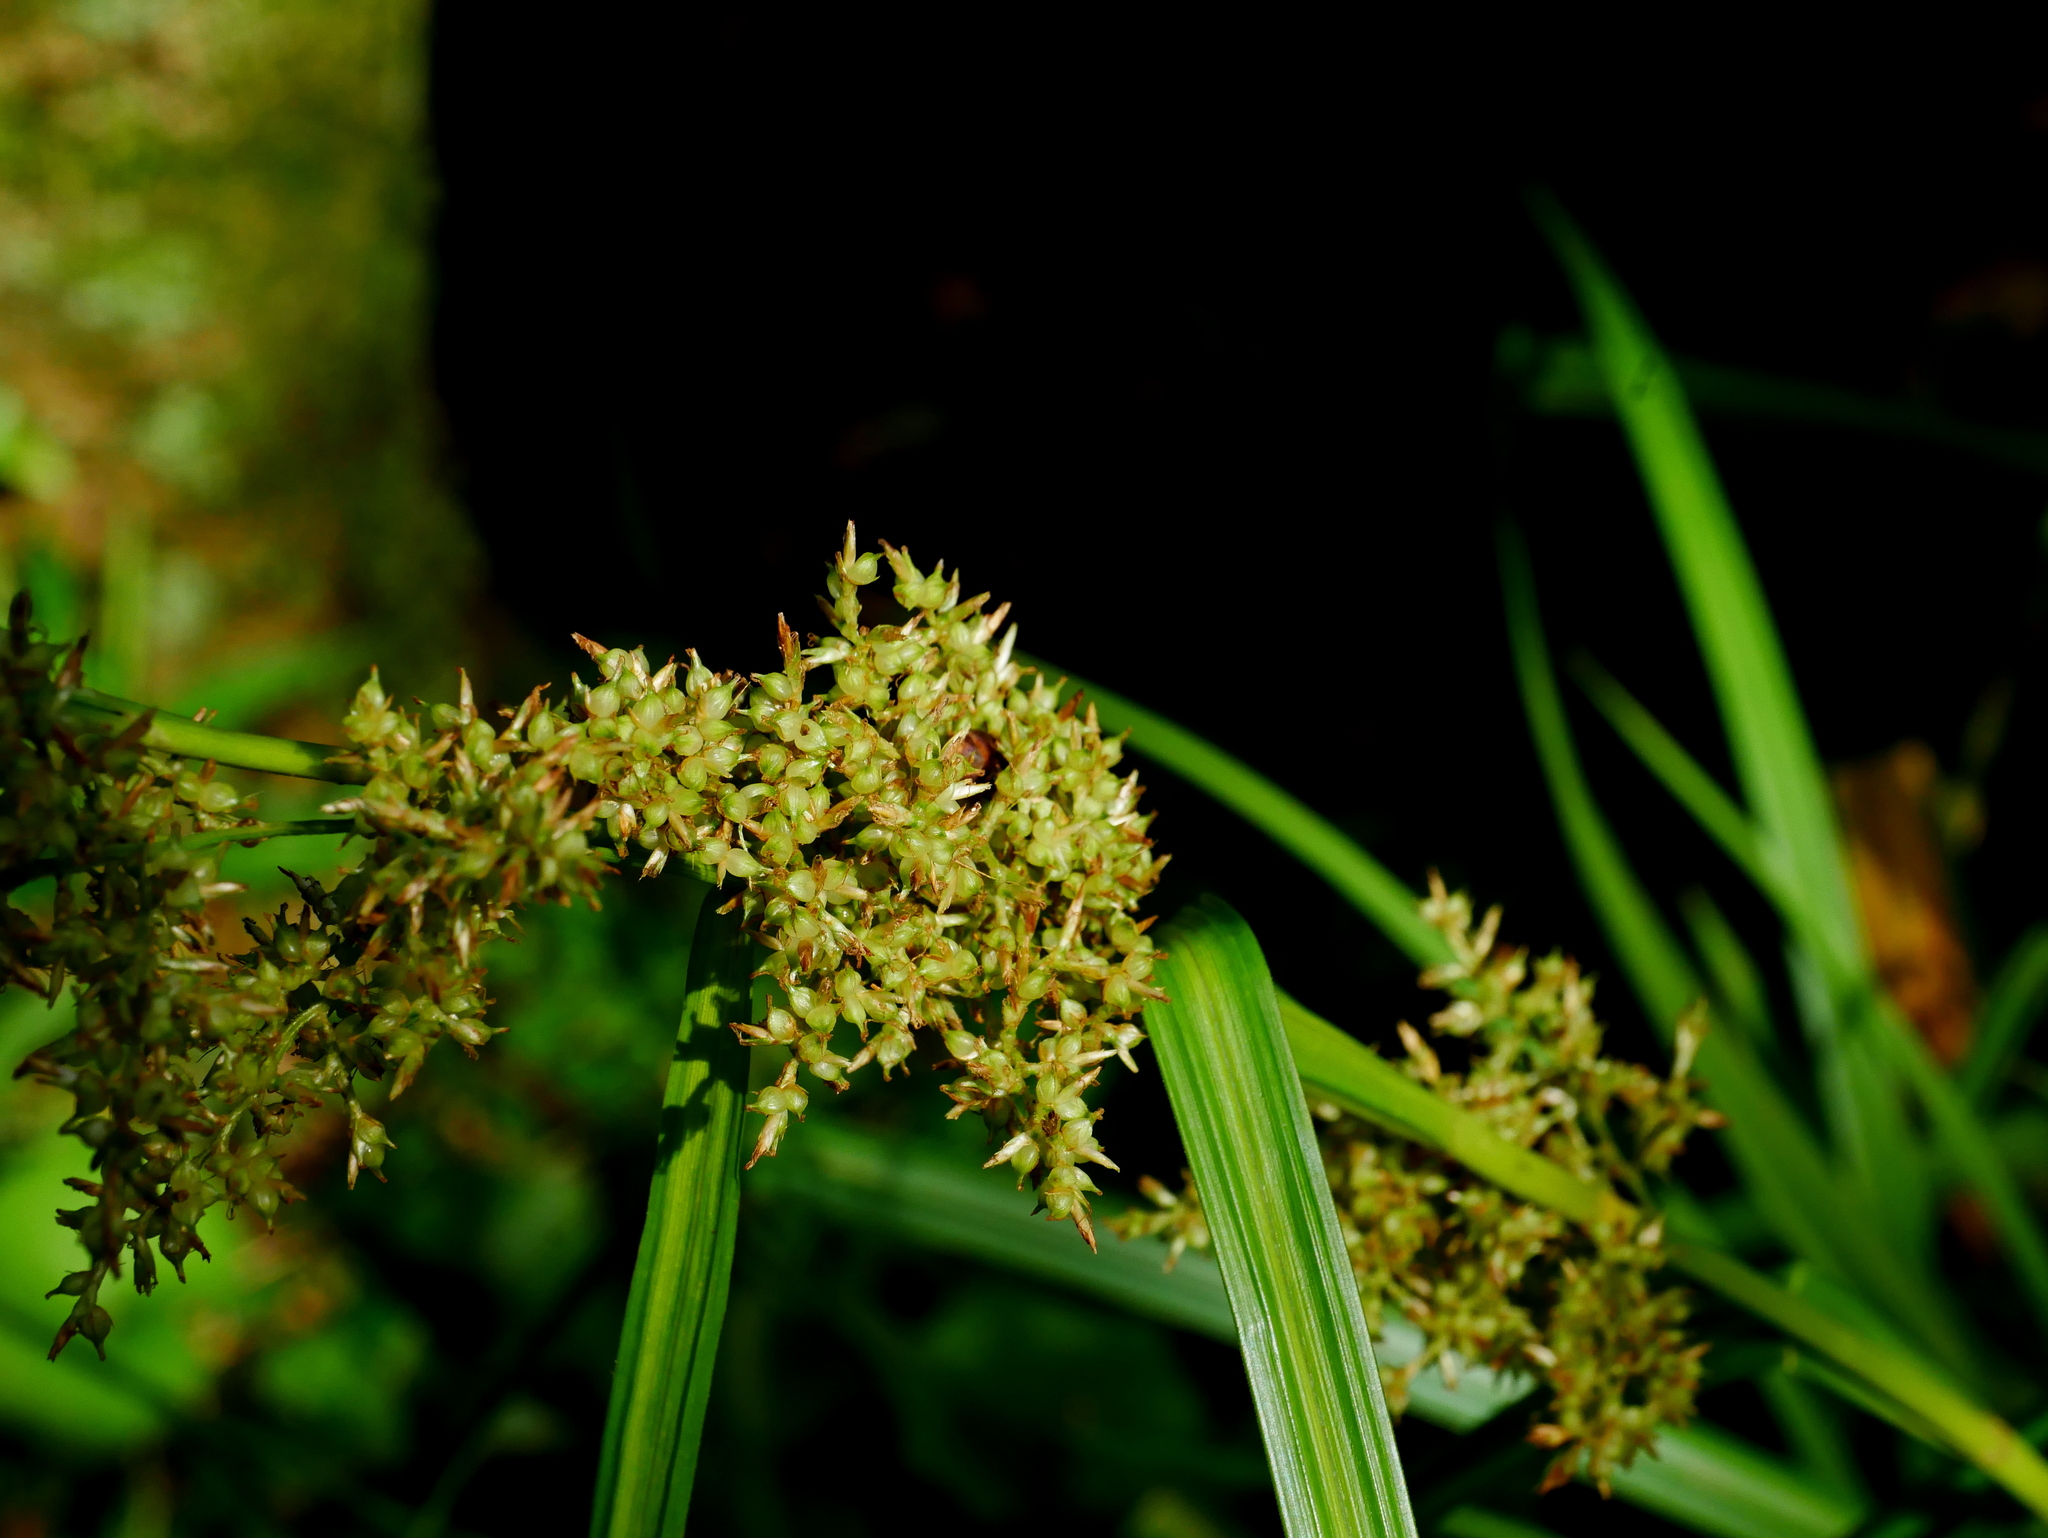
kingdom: Plantae
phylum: Tracheophyta
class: Liliopsida
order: Poales
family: Cyperaceae
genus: Carex
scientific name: Carex cruciata
